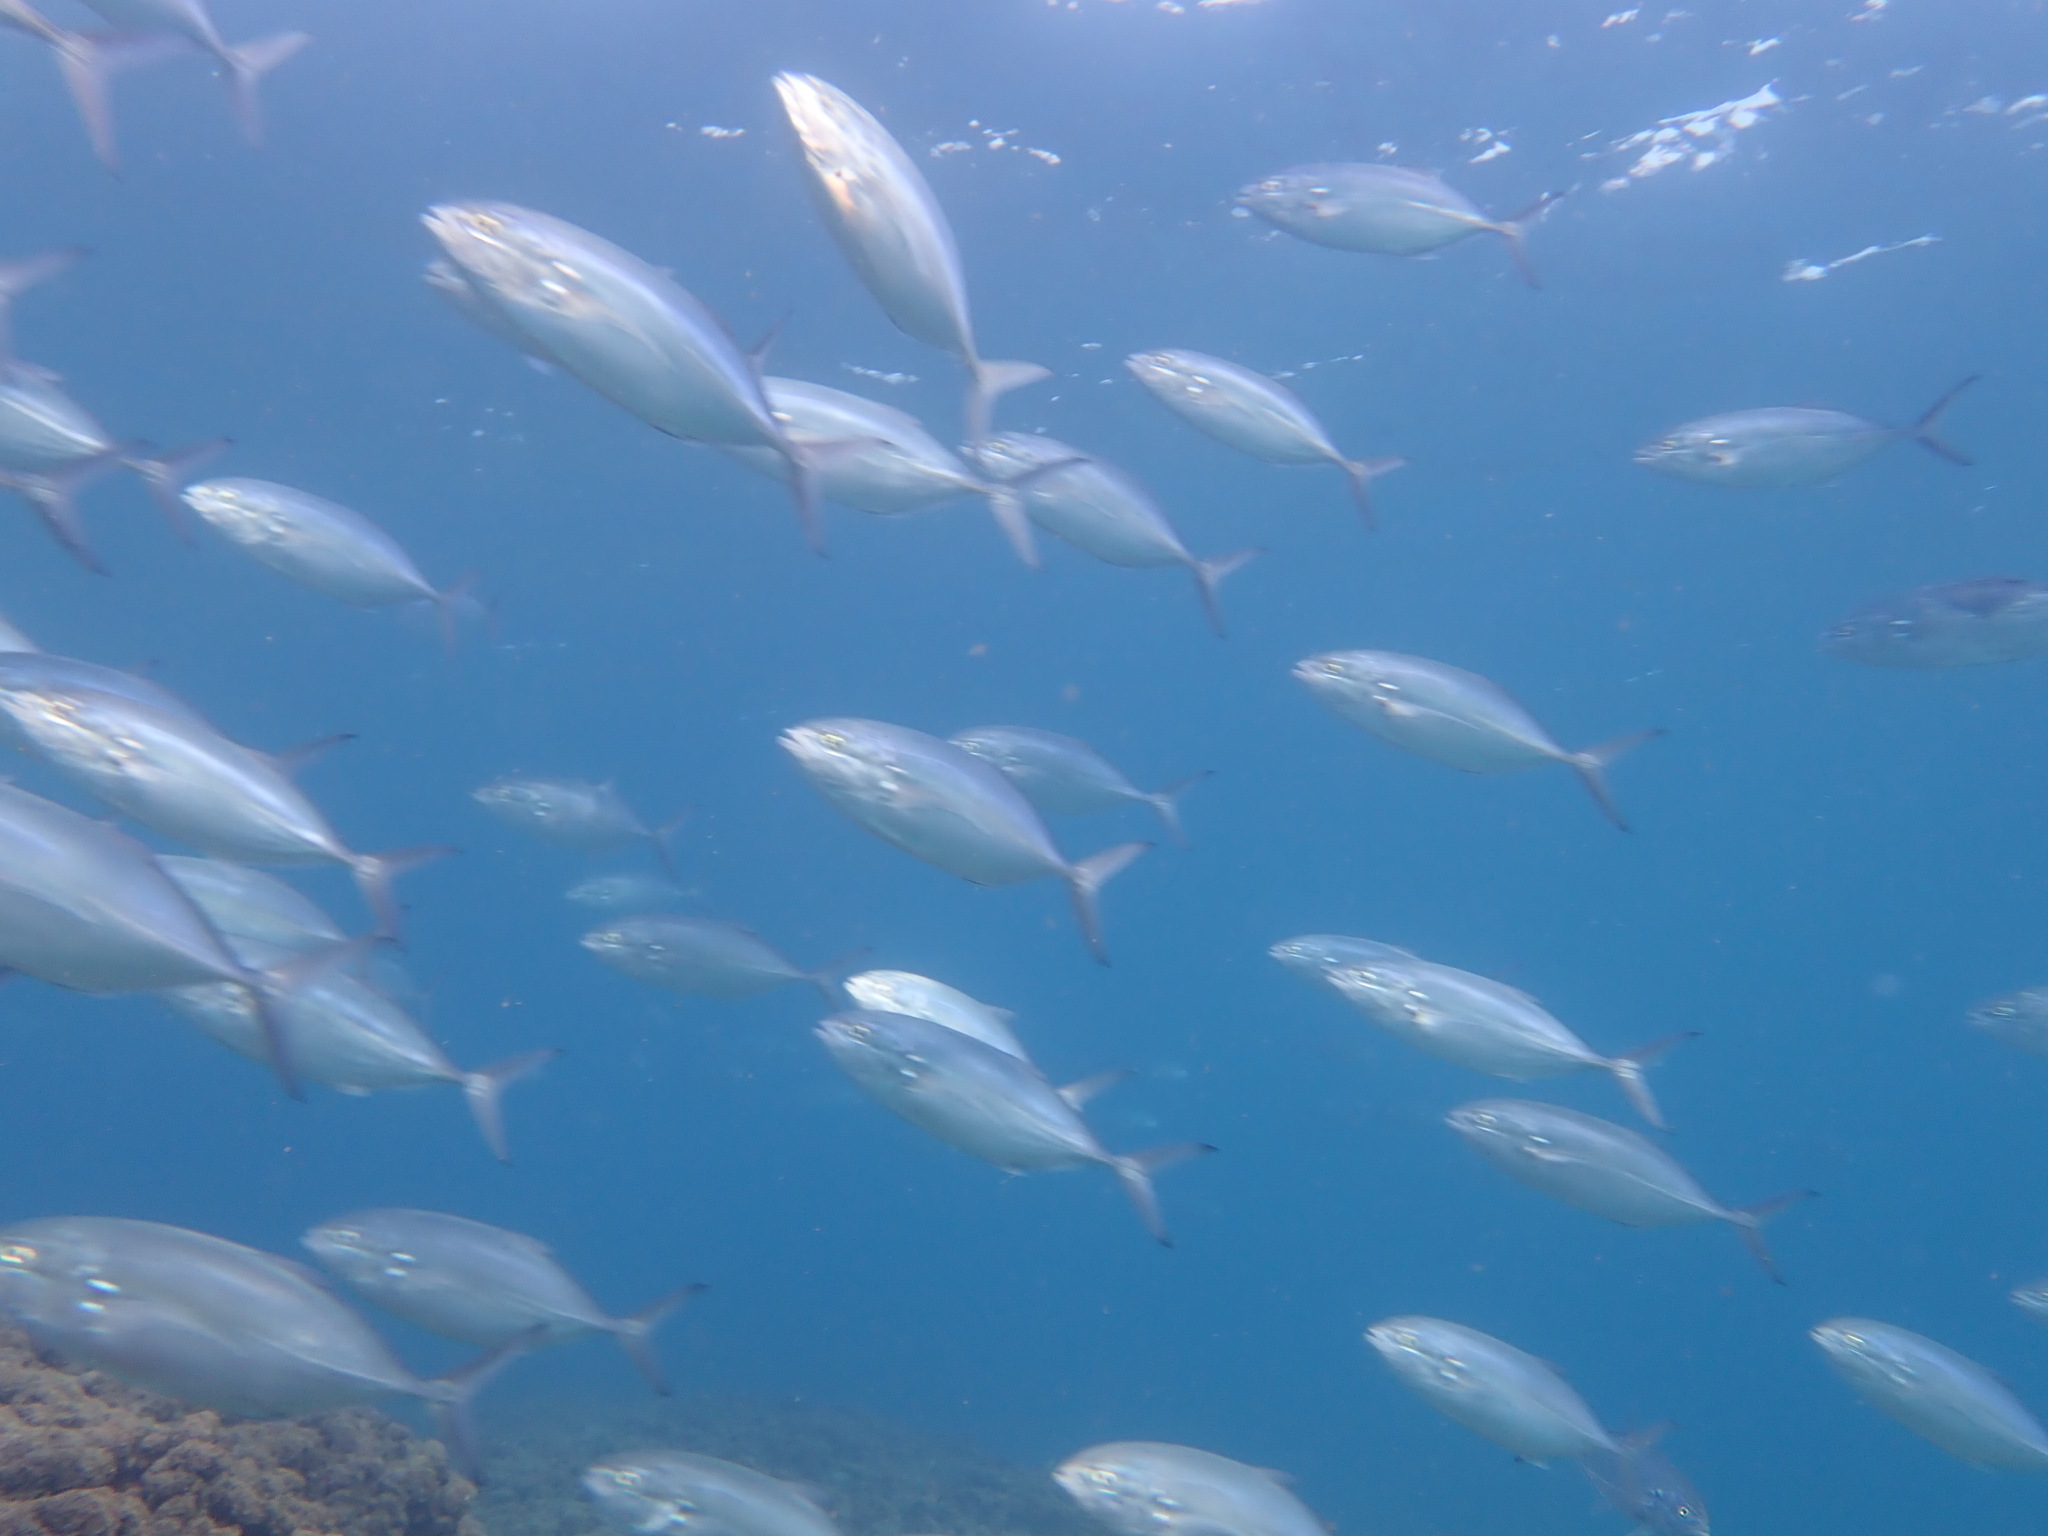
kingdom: Animalia
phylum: Chordata
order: Perciformes
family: Carangidae
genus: Caranx
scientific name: Caranx crysos
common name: Blue runner
